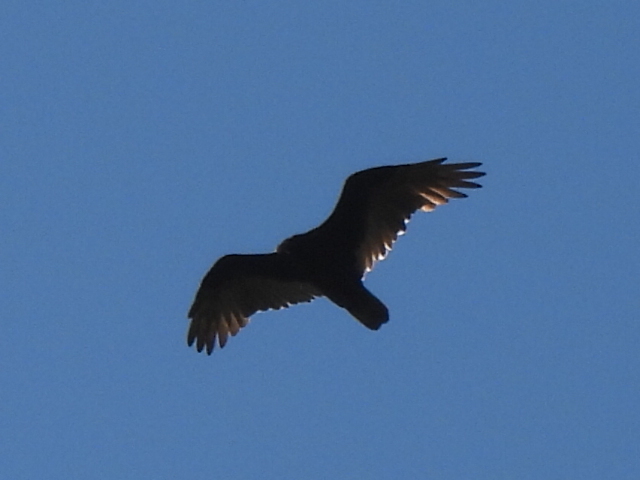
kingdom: Animalia
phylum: Chordata
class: Aves
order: Accipitriformes
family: Cathartidae
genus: Cathartes
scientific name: Cathartes aura
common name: Turkey vulture
